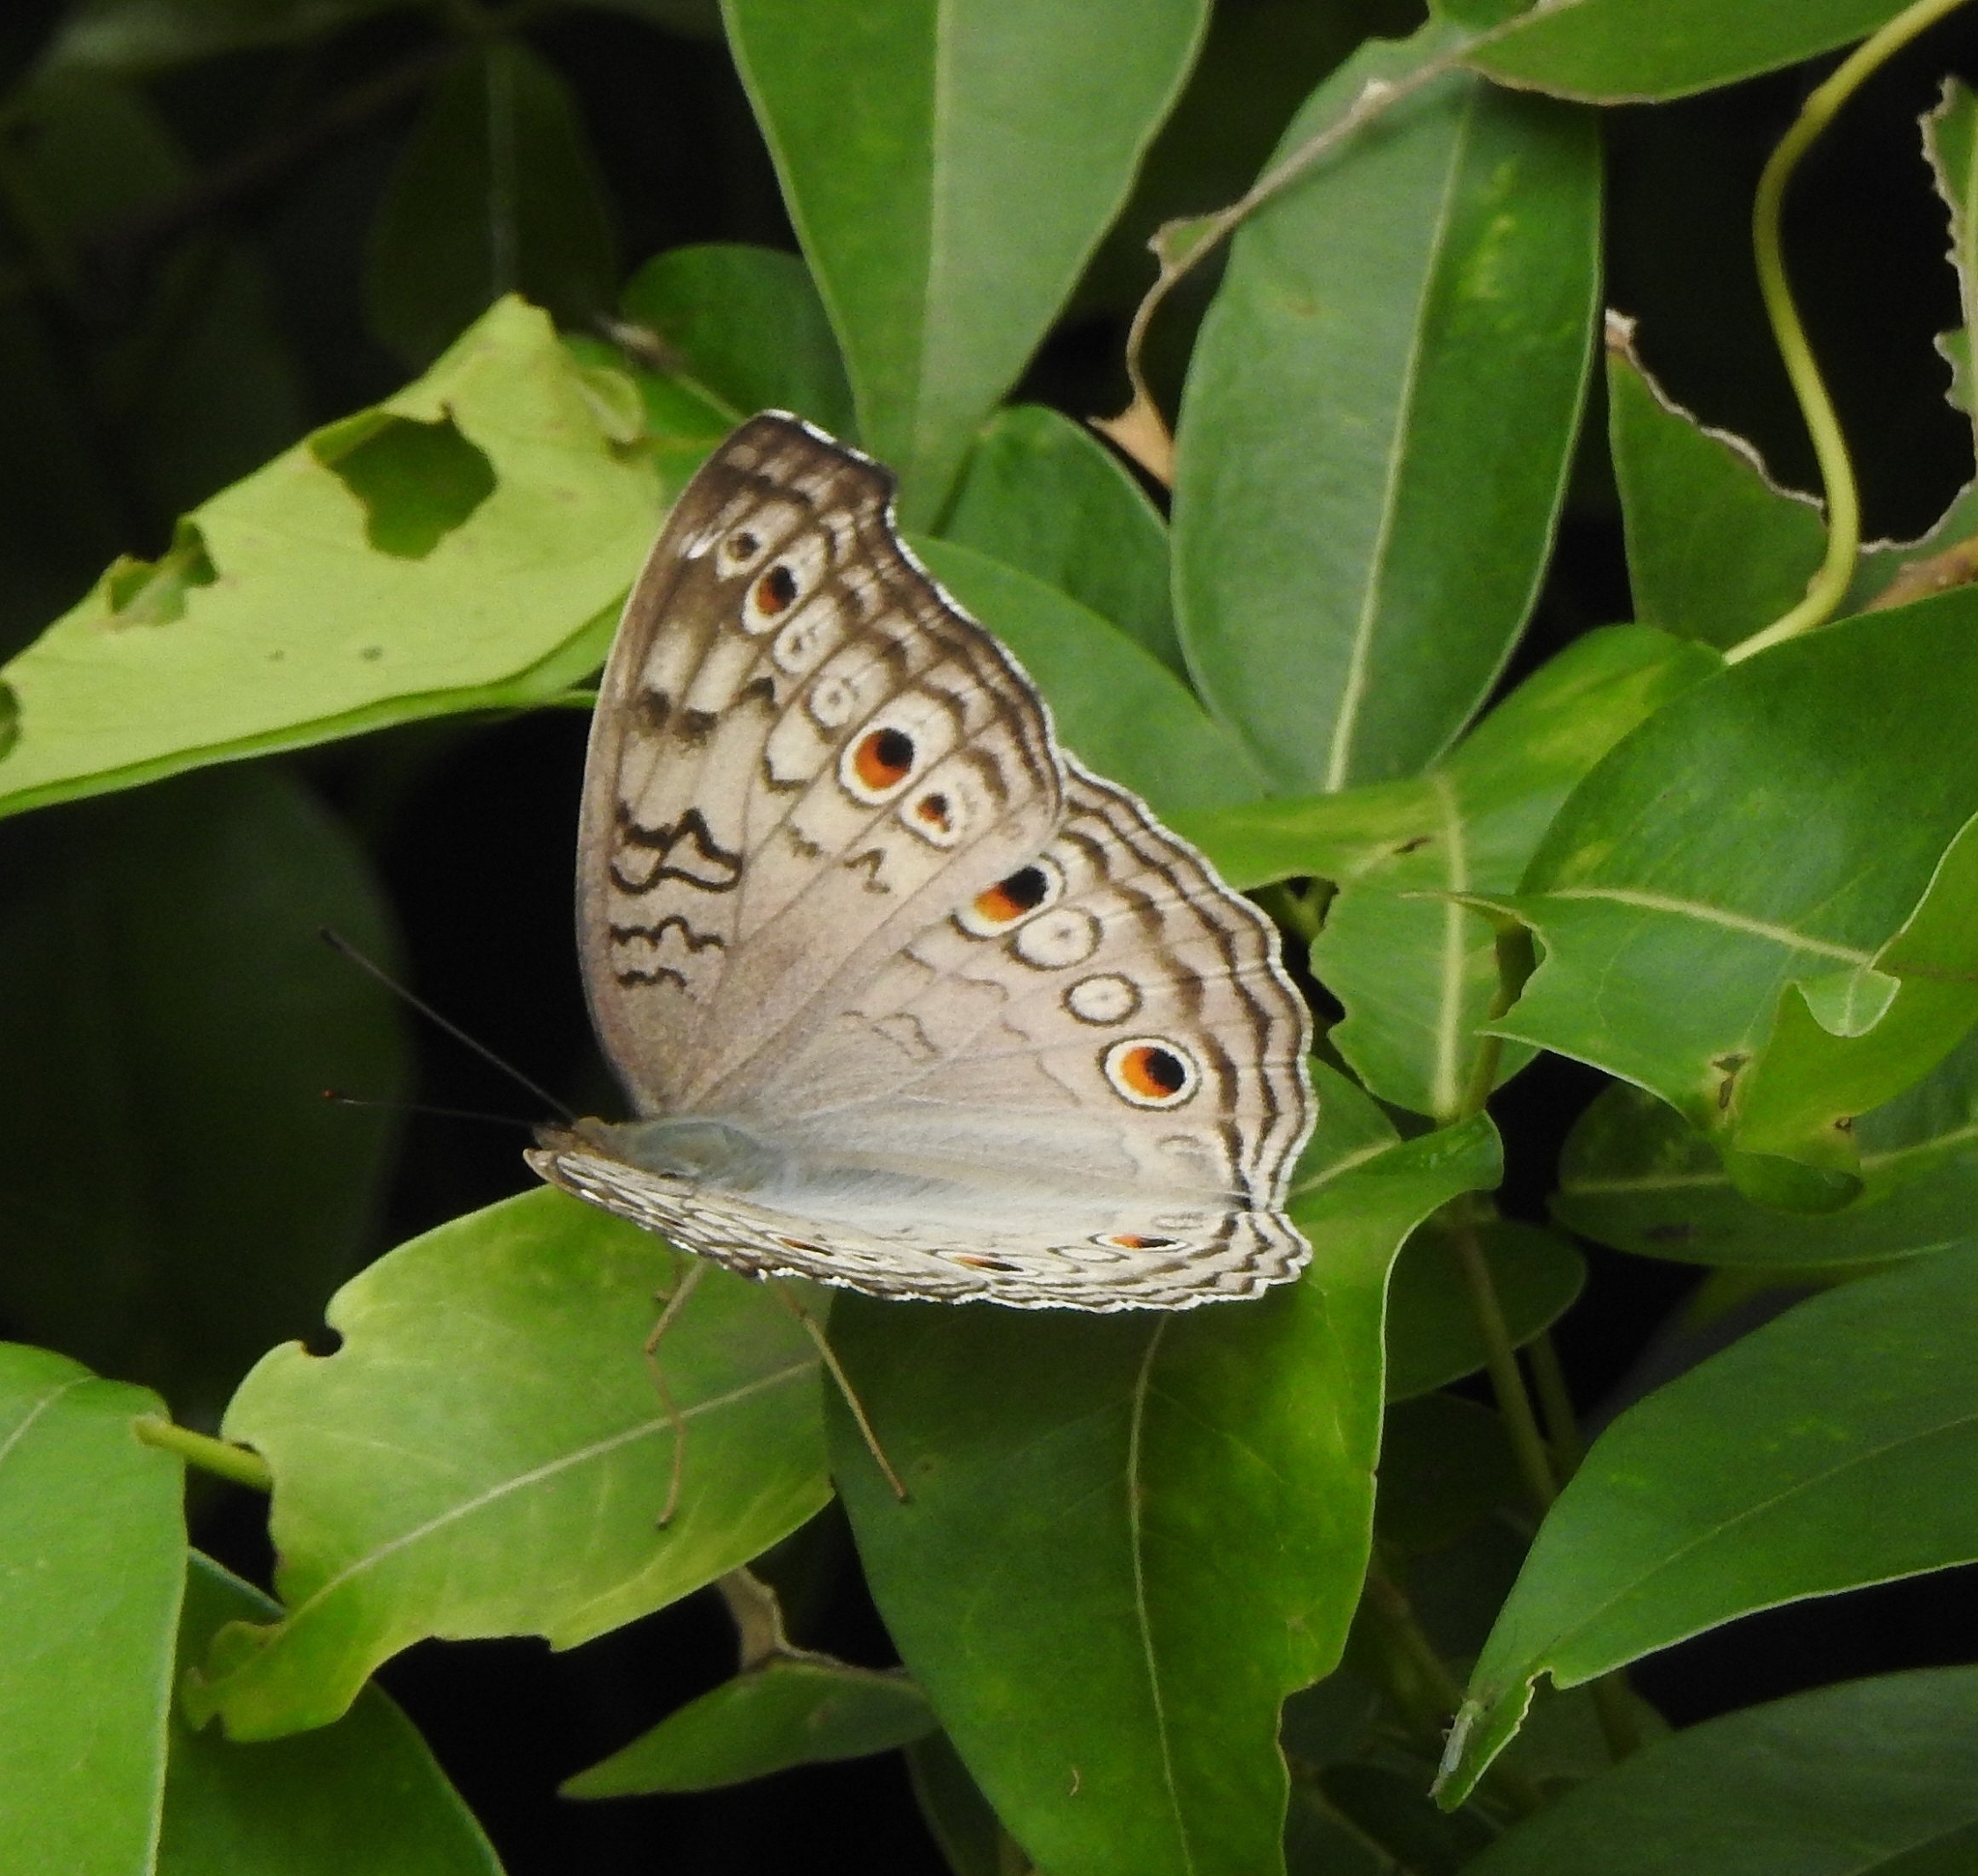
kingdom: Animalia
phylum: Arthropoda
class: Insecta
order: Lepidoptera
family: Nymphalidae
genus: Junonia
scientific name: Junonia atlites
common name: Grey pansy
